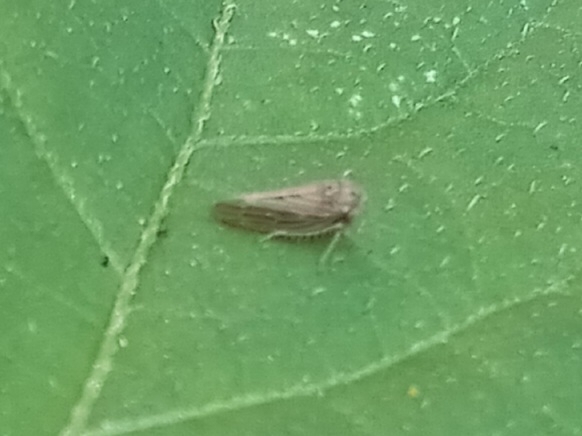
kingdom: Animalia
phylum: Arthropoda
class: Insecta
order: Hemiptera
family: Cicadellidae
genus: Agallia
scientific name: Agallia constricta
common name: The constricted leafhopper
